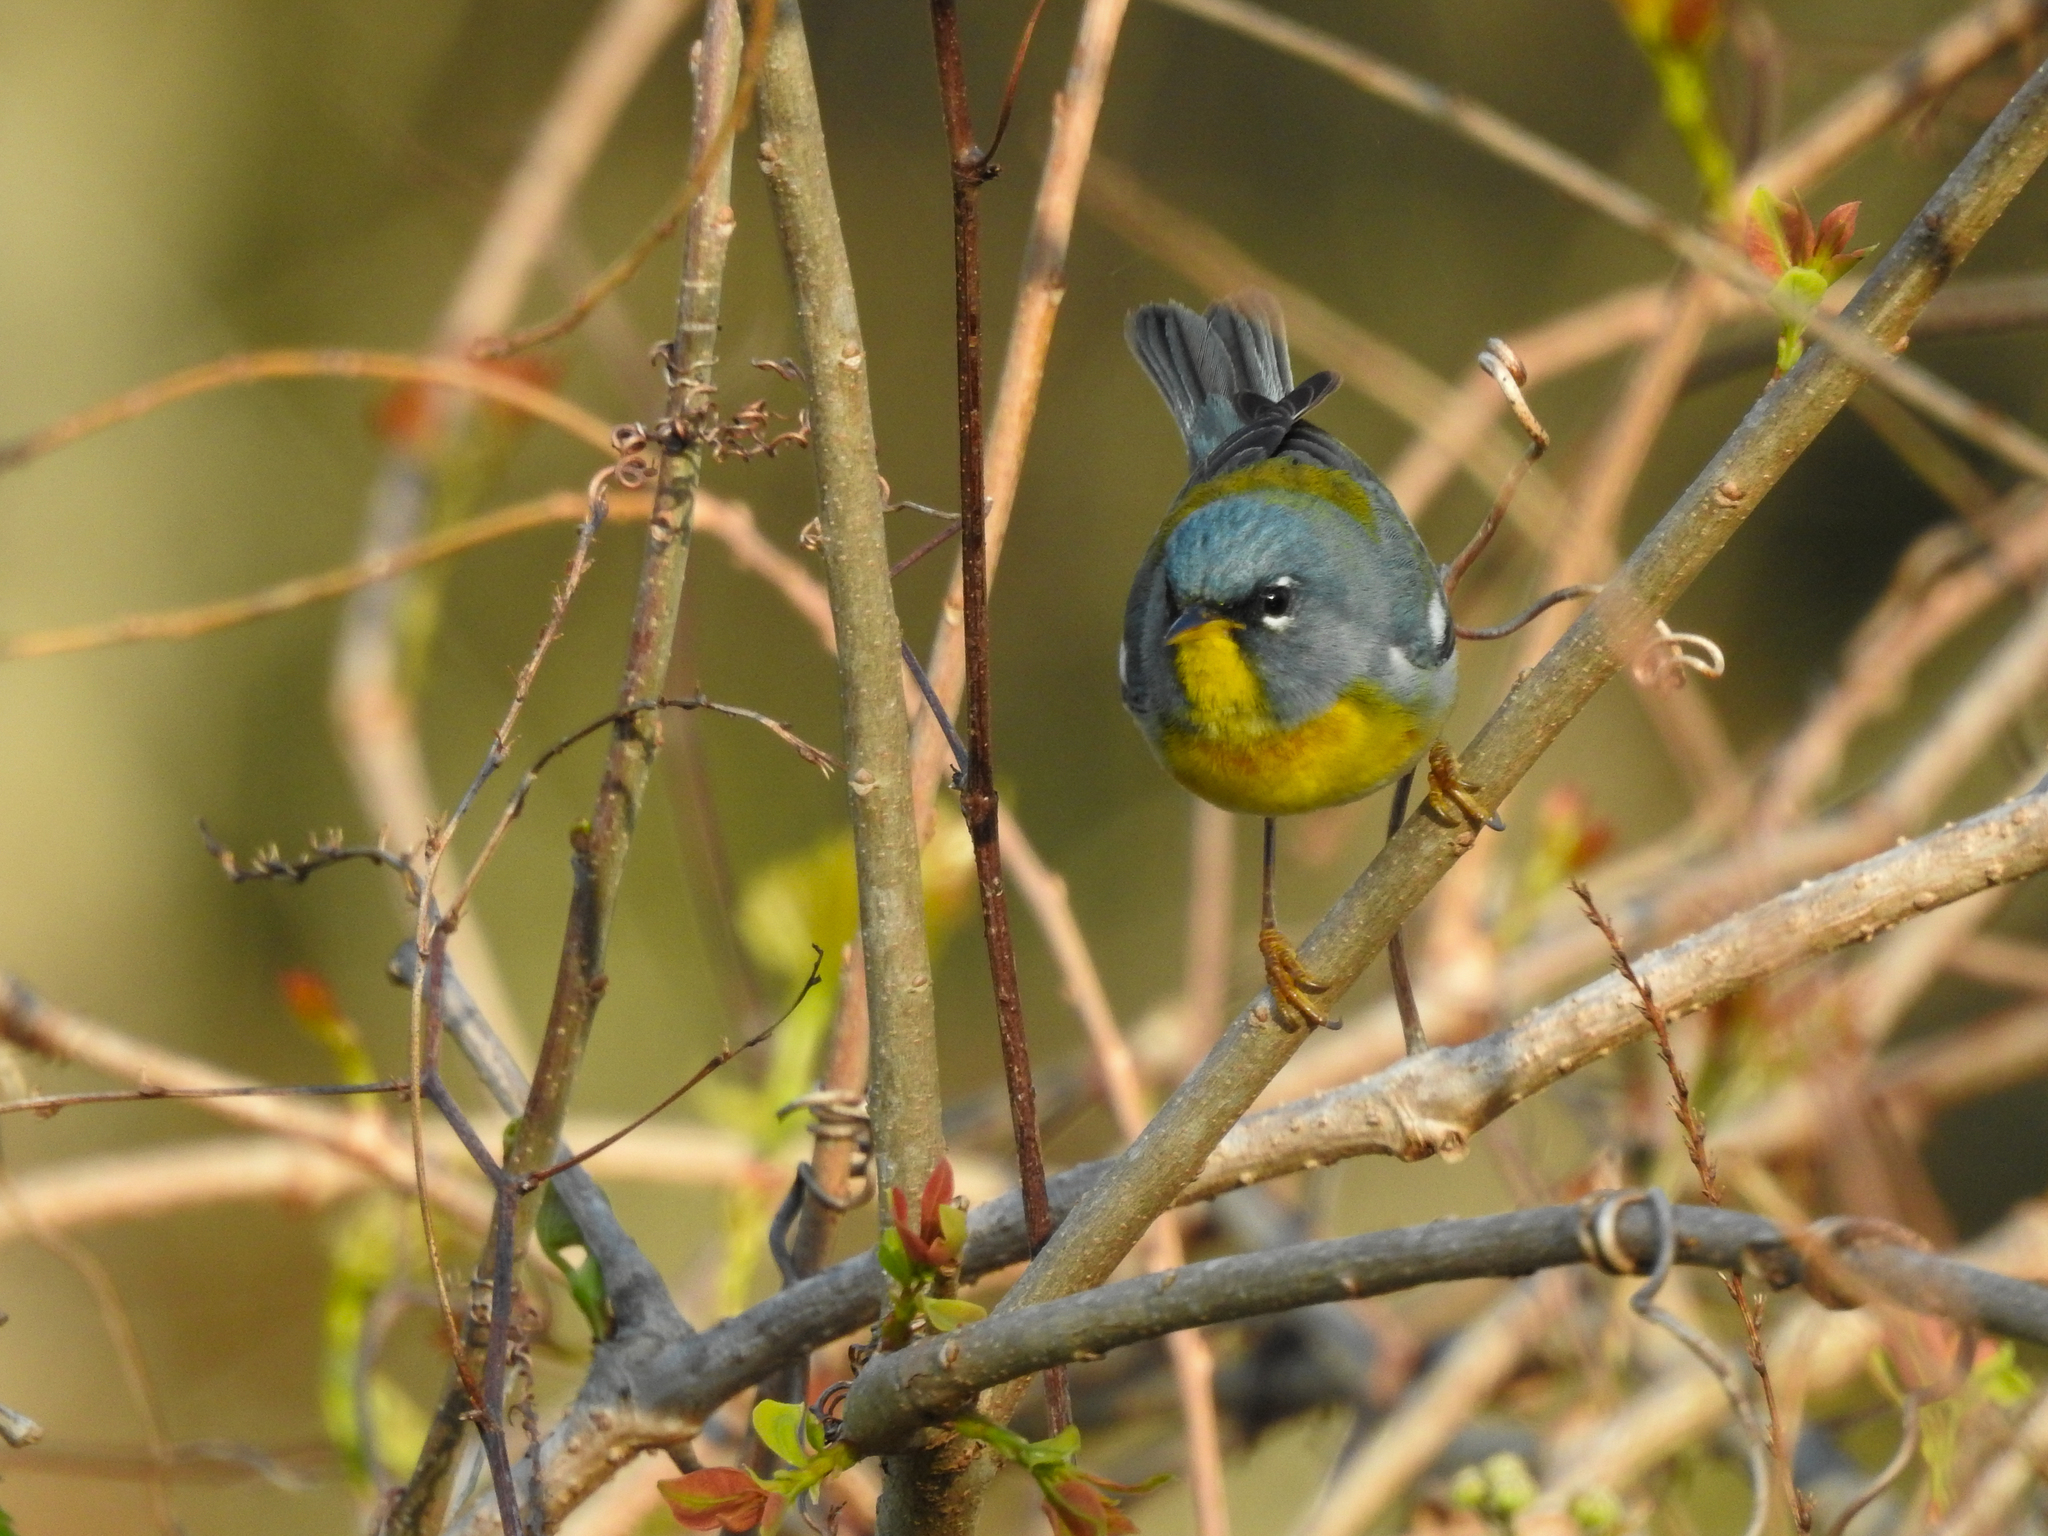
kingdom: Animalia
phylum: Chordata
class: Aves
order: Passeriformes
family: Parulidae
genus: Setophaga
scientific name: Setophaga americana
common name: Northern parula
